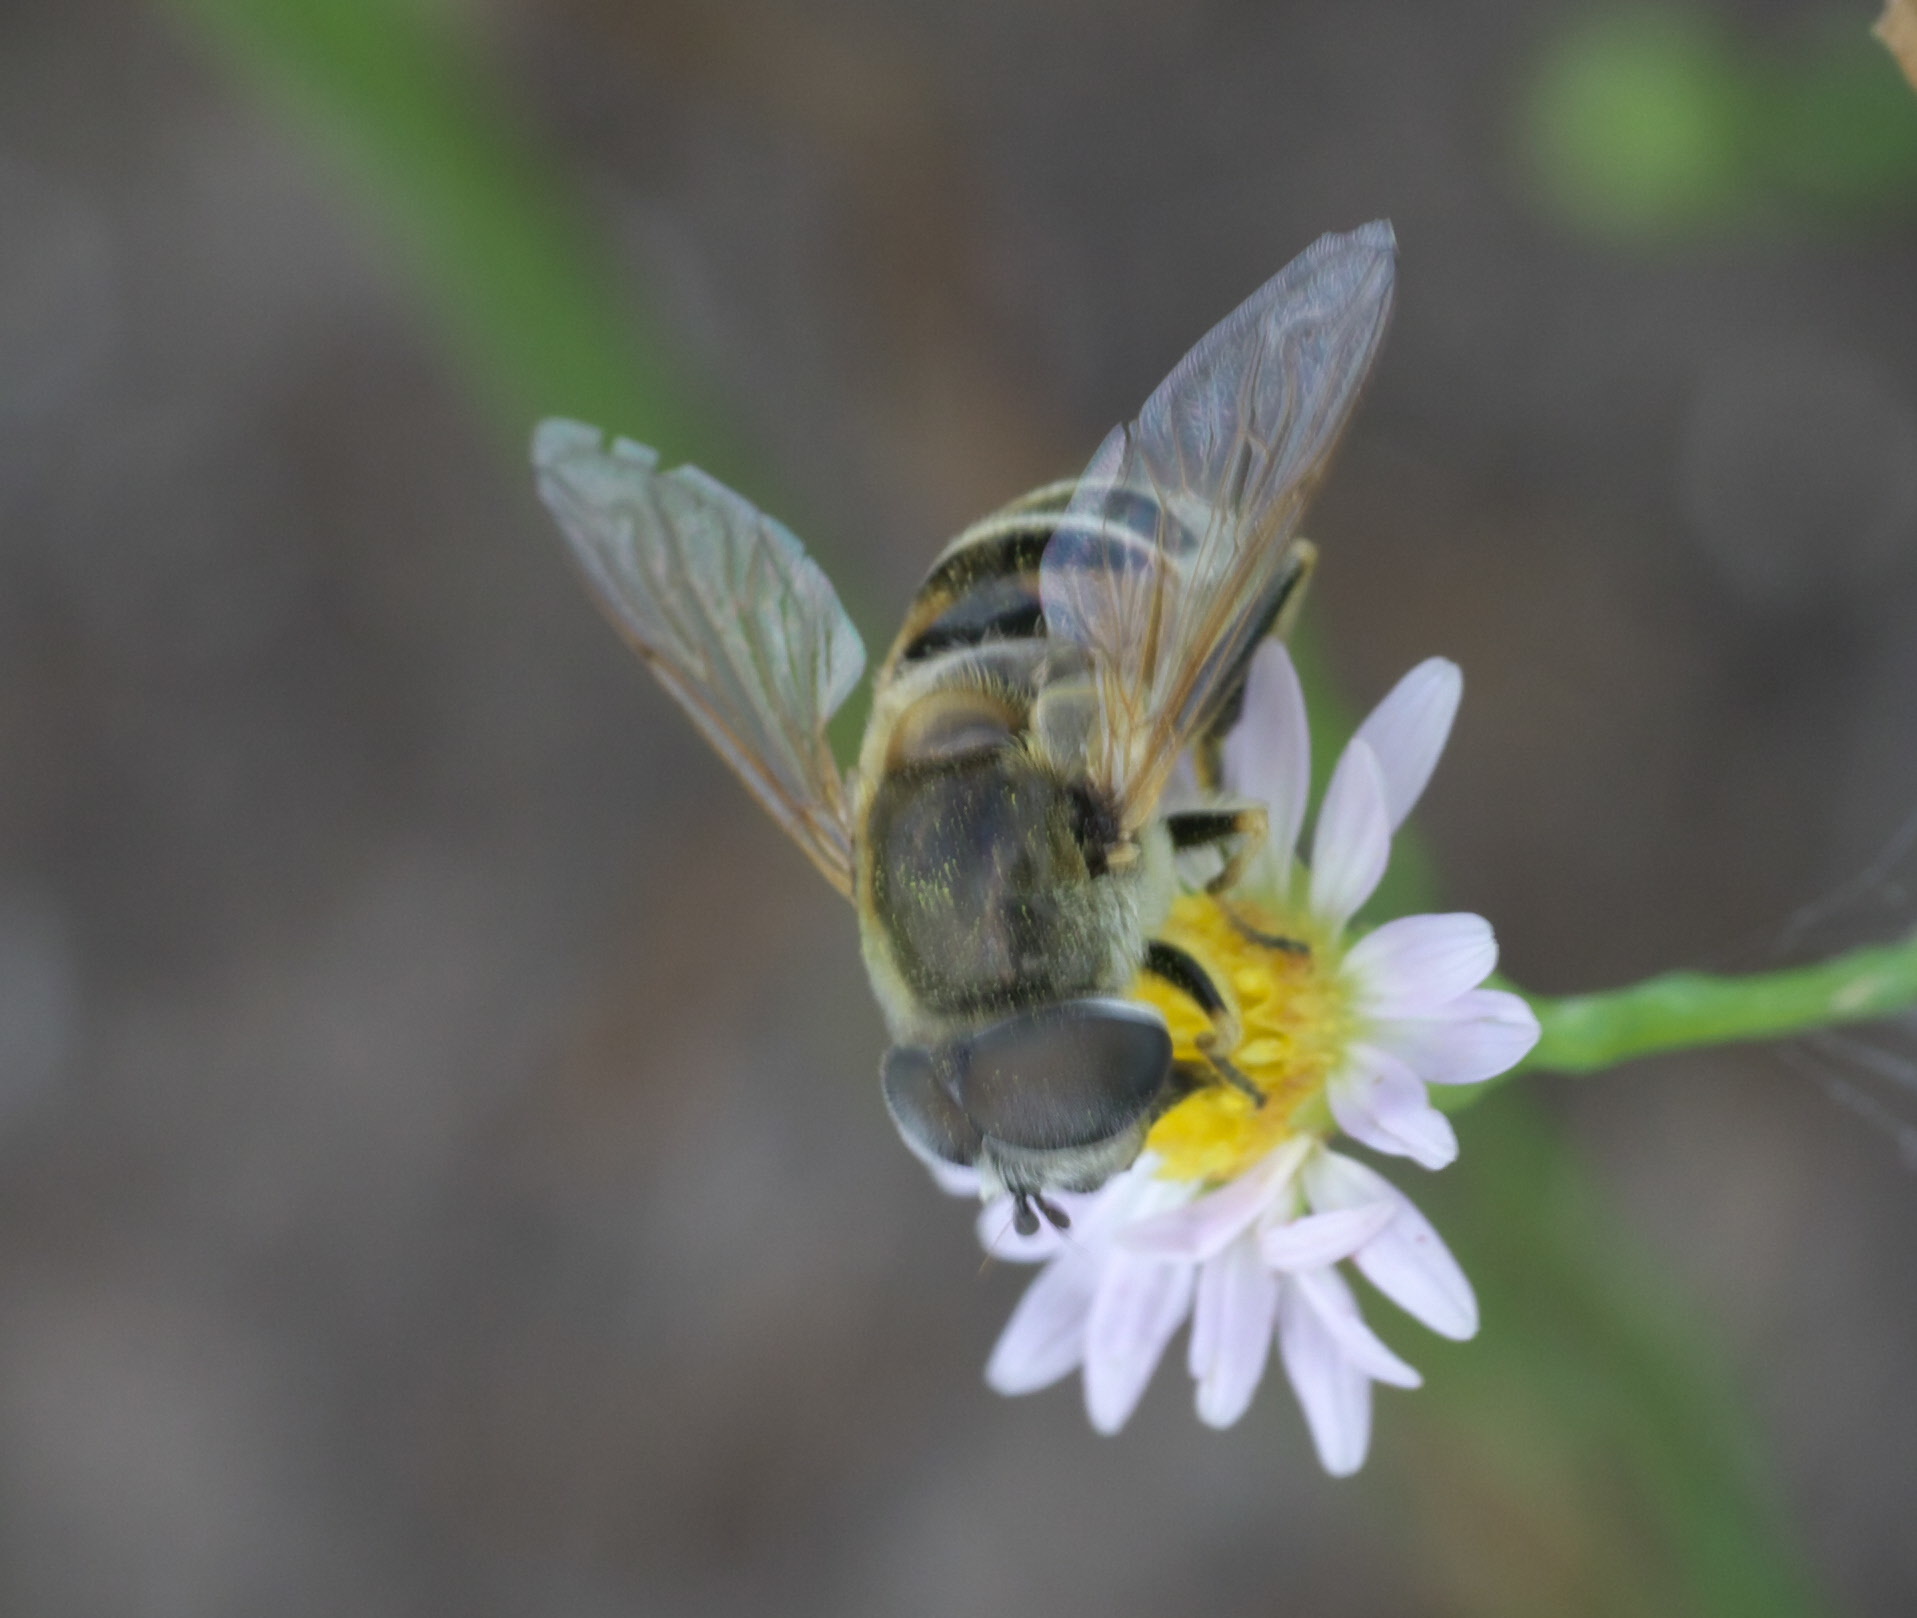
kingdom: Animalia
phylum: Arthropoda
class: Insecta
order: Diptera
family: Syrphidae
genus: Eristalis
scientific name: Eristalis stipator
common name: Yellow-shouldered drone fly
